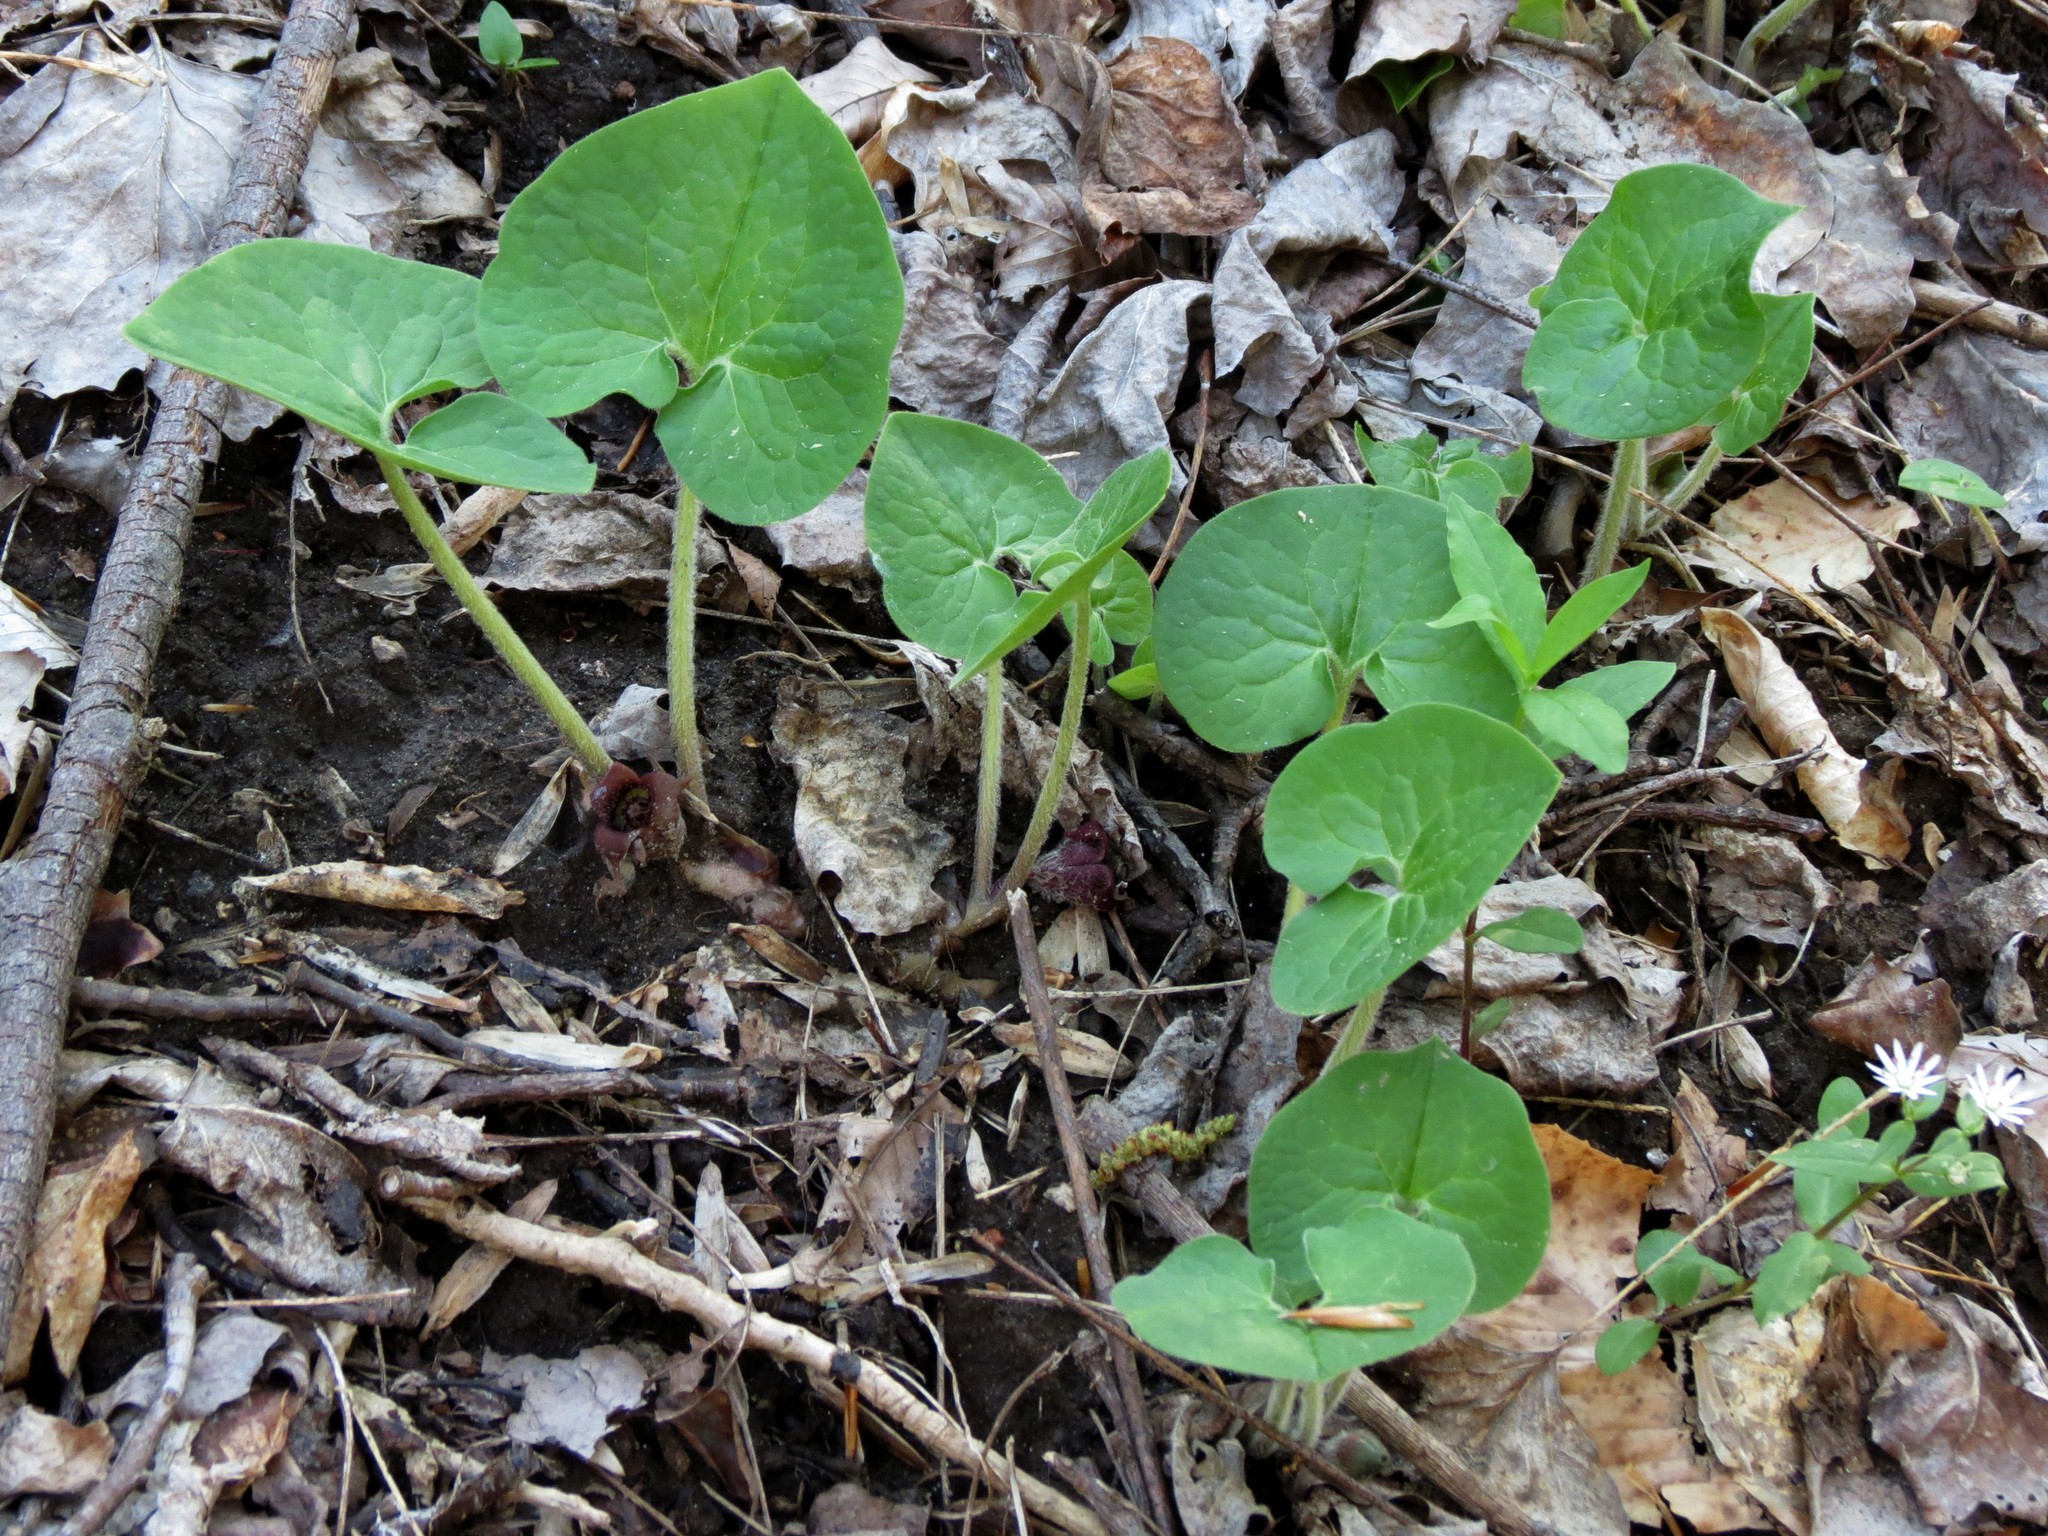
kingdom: Plantae
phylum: Tracheophyta
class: Magnoliopsida
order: Piperales
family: Aristolochiaceae
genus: Asarum
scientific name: Asarum canadense
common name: Wild ginger
